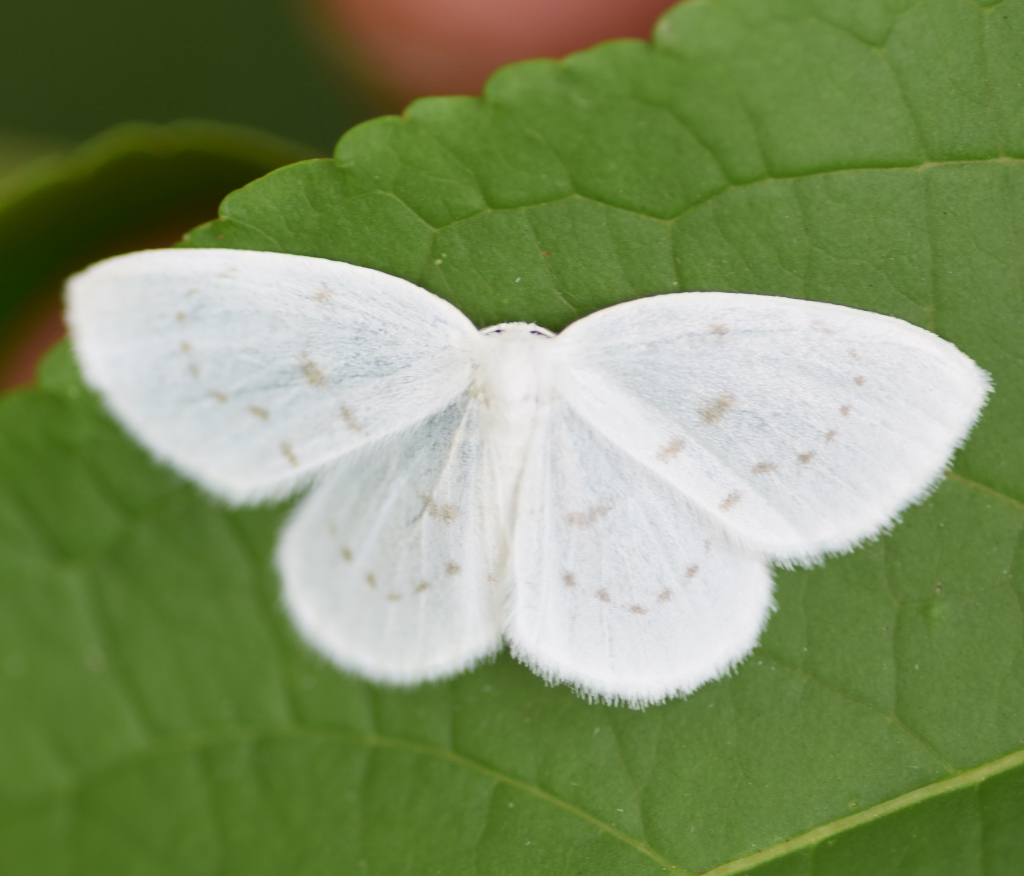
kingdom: Animalia
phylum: Arthropoda
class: Insecta
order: Lepidoptera
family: Drepanidae
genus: Eudeilinia
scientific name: Eudeilinia herminiata
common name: Northern eudeilinea moth
